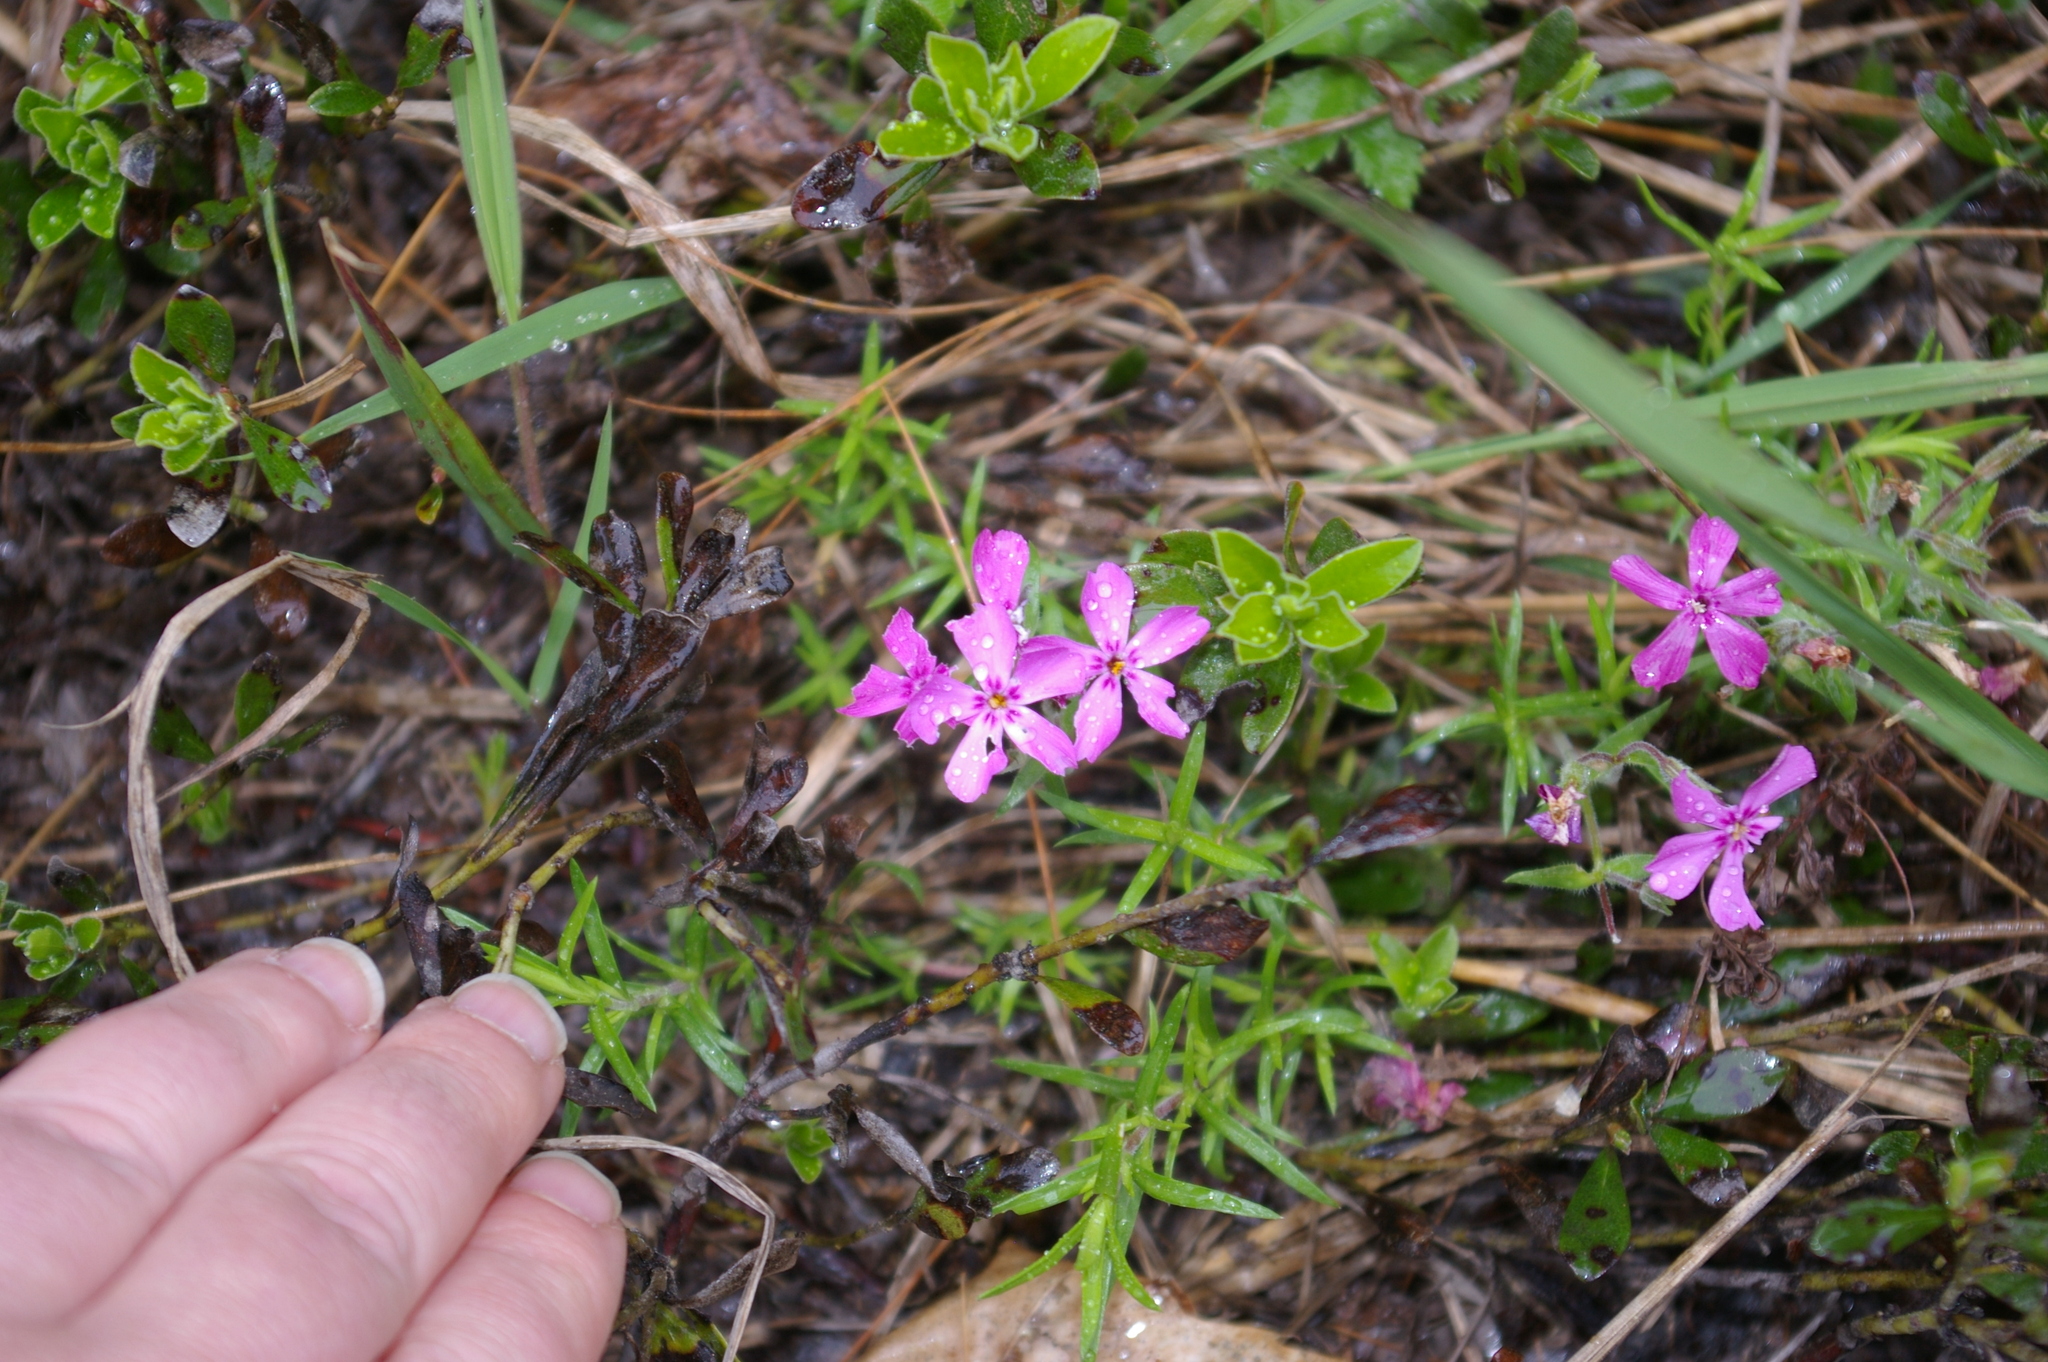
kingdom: Plantae
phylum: Tracheophyta
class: Magnoliopsida
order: Ericales
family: Polemoniaceae
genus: Phlox
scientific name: Phlox subulata
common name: Moss phlox
